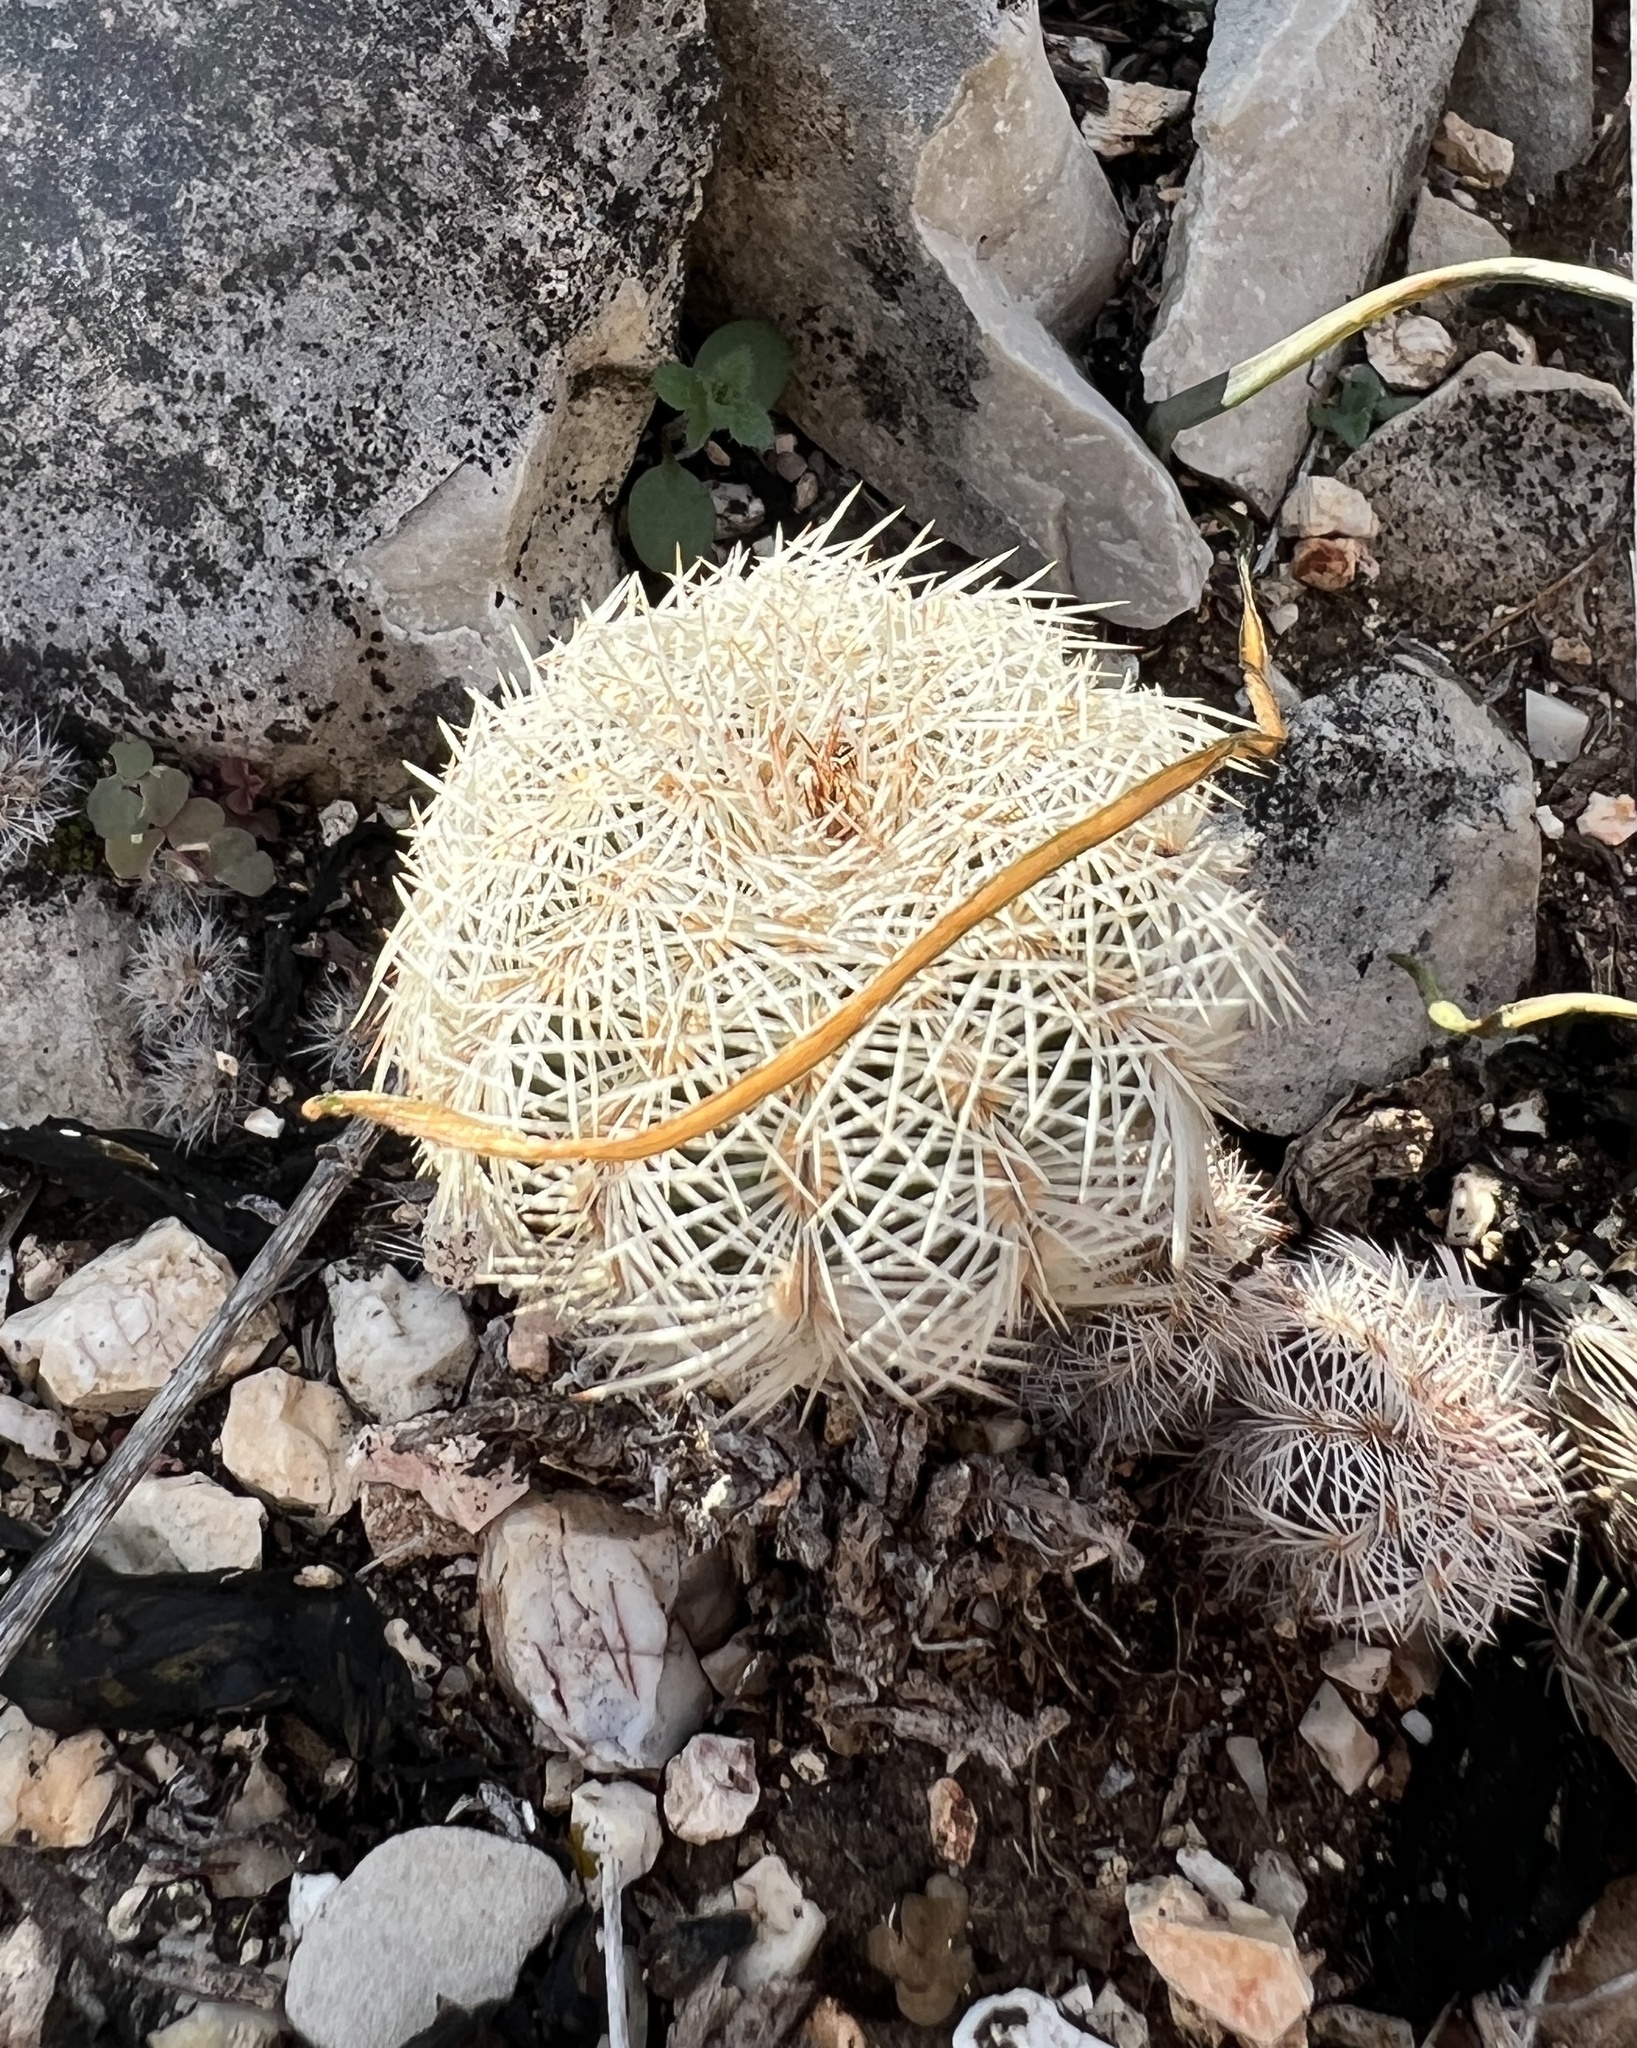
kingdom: Plantae
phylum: Tracheophyta
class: Magnoliopsida
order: Caryophyllales
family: Cactaceae
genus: Echinocereus
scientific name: Echinocereus reichenbachii
